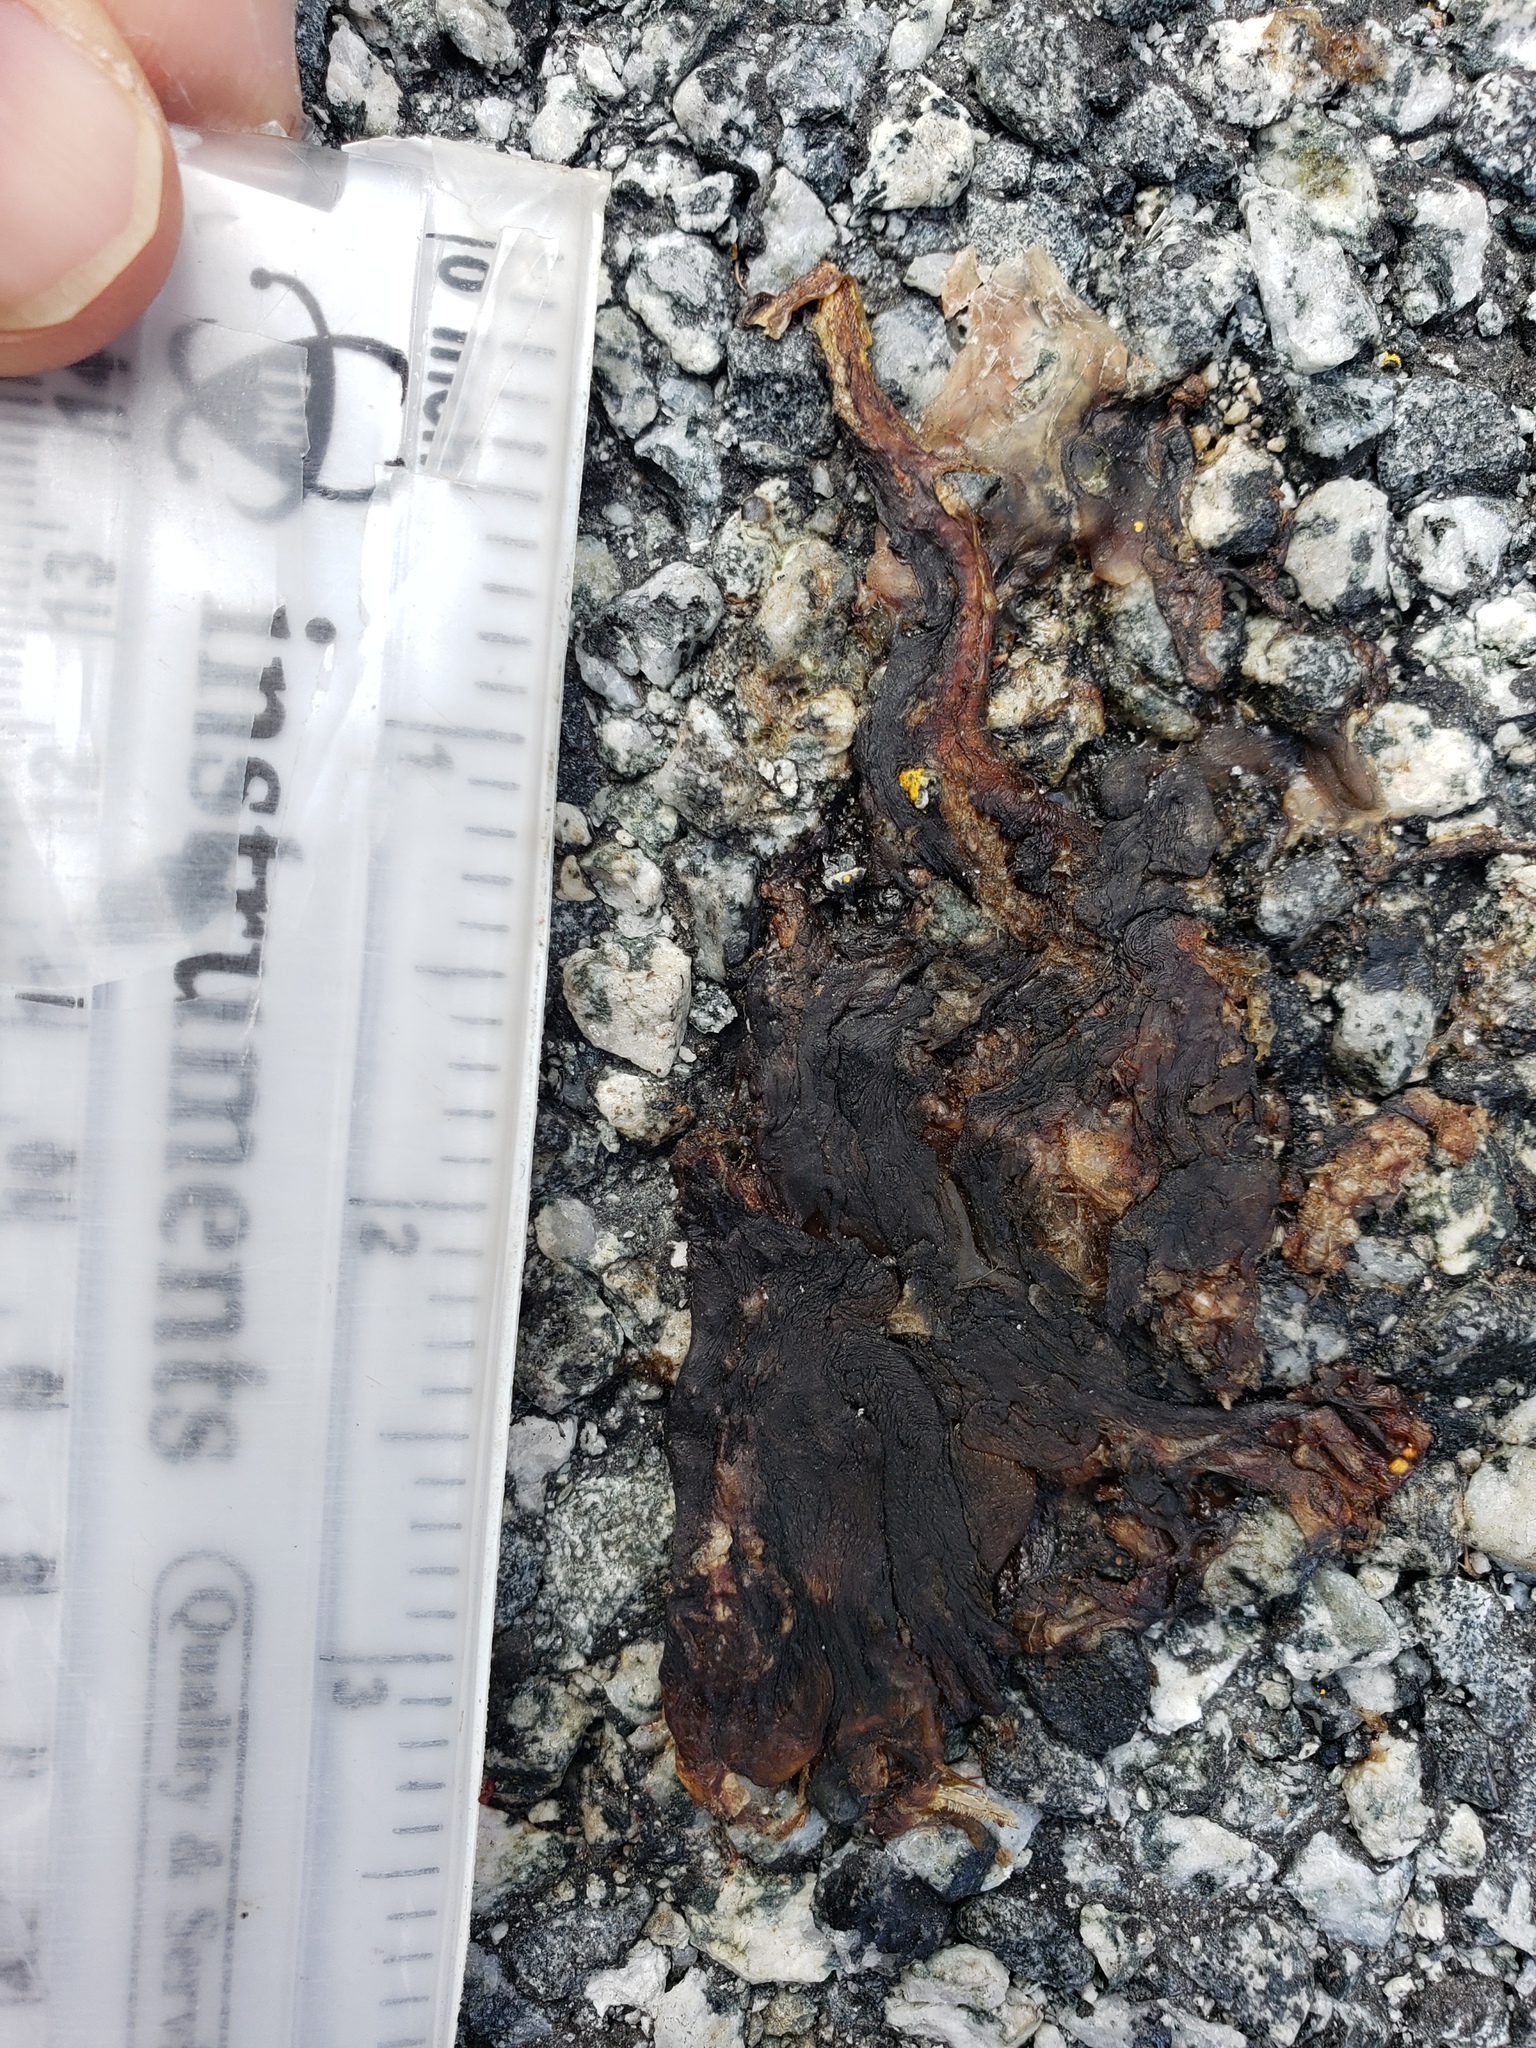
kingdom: Animalia
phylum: Chordata
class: Amphibia
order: Caudata
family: Salamandridae
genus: Taricha
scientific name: Taricha
